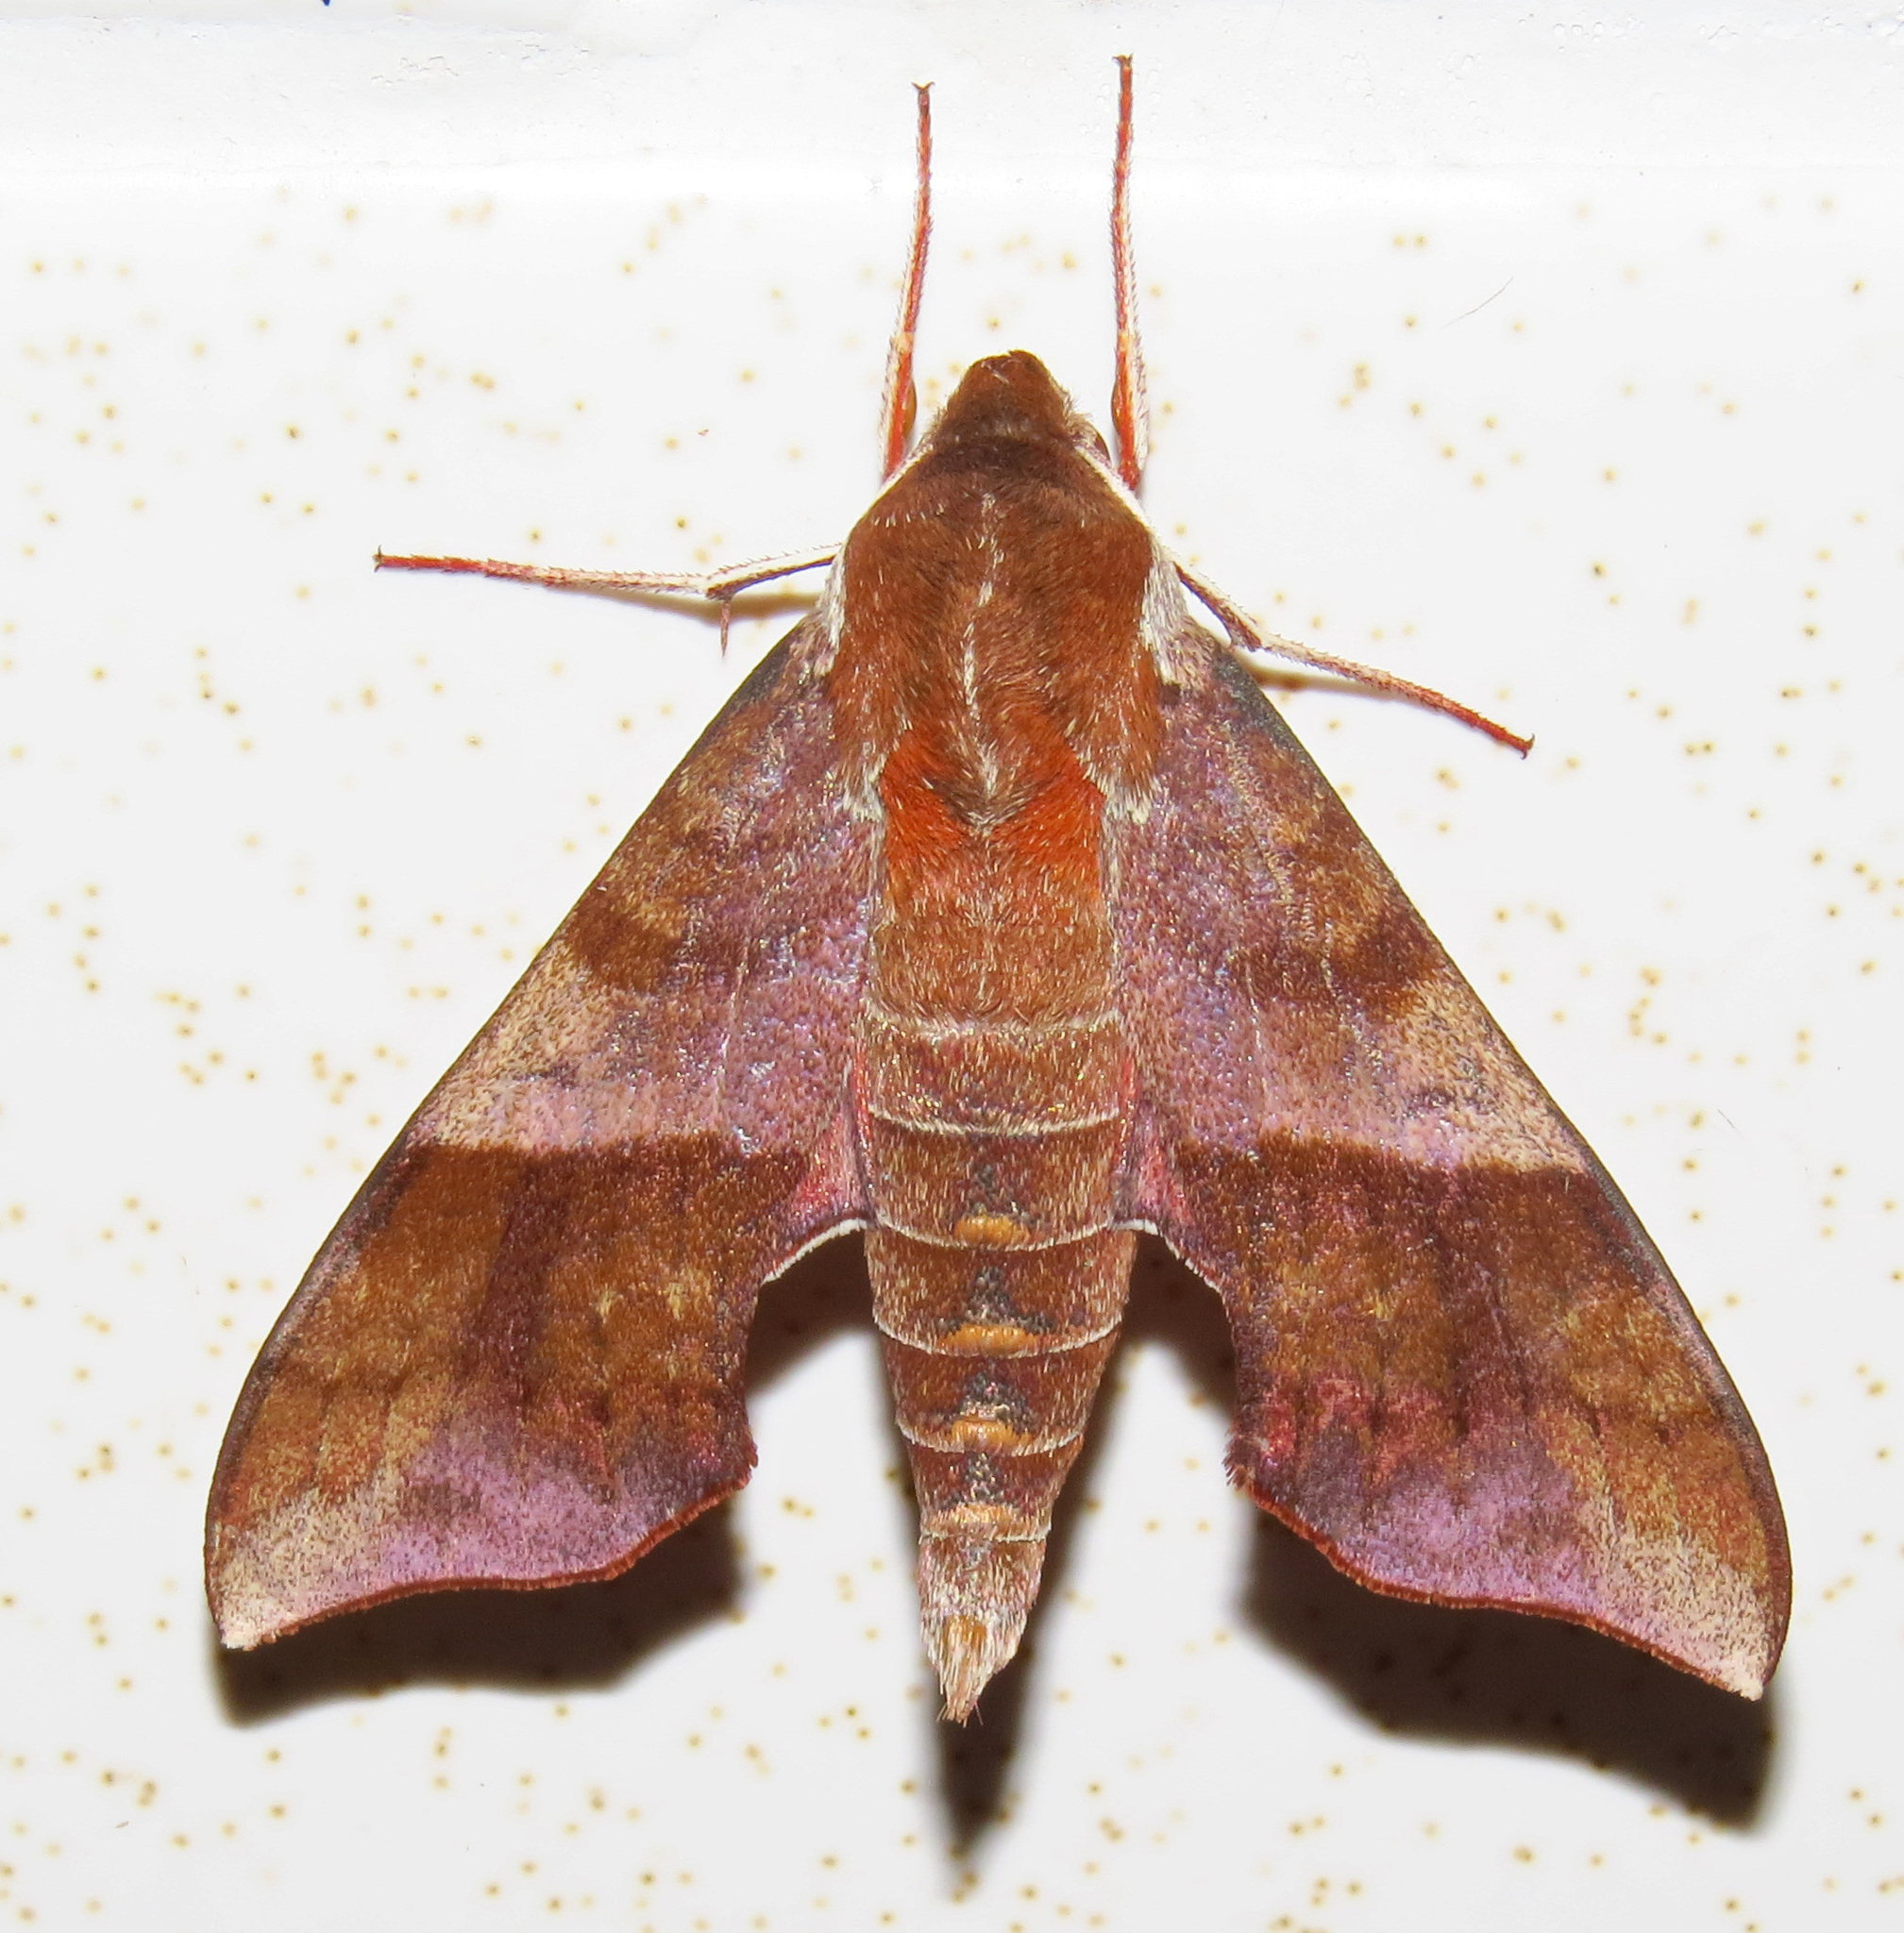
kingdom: Animalia
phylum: Arthropoda
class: Insecta
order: Lepidoptera
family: Sphingidae
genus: Darapsa
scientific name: Darapsa choerilus
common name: Azalea sphinx
